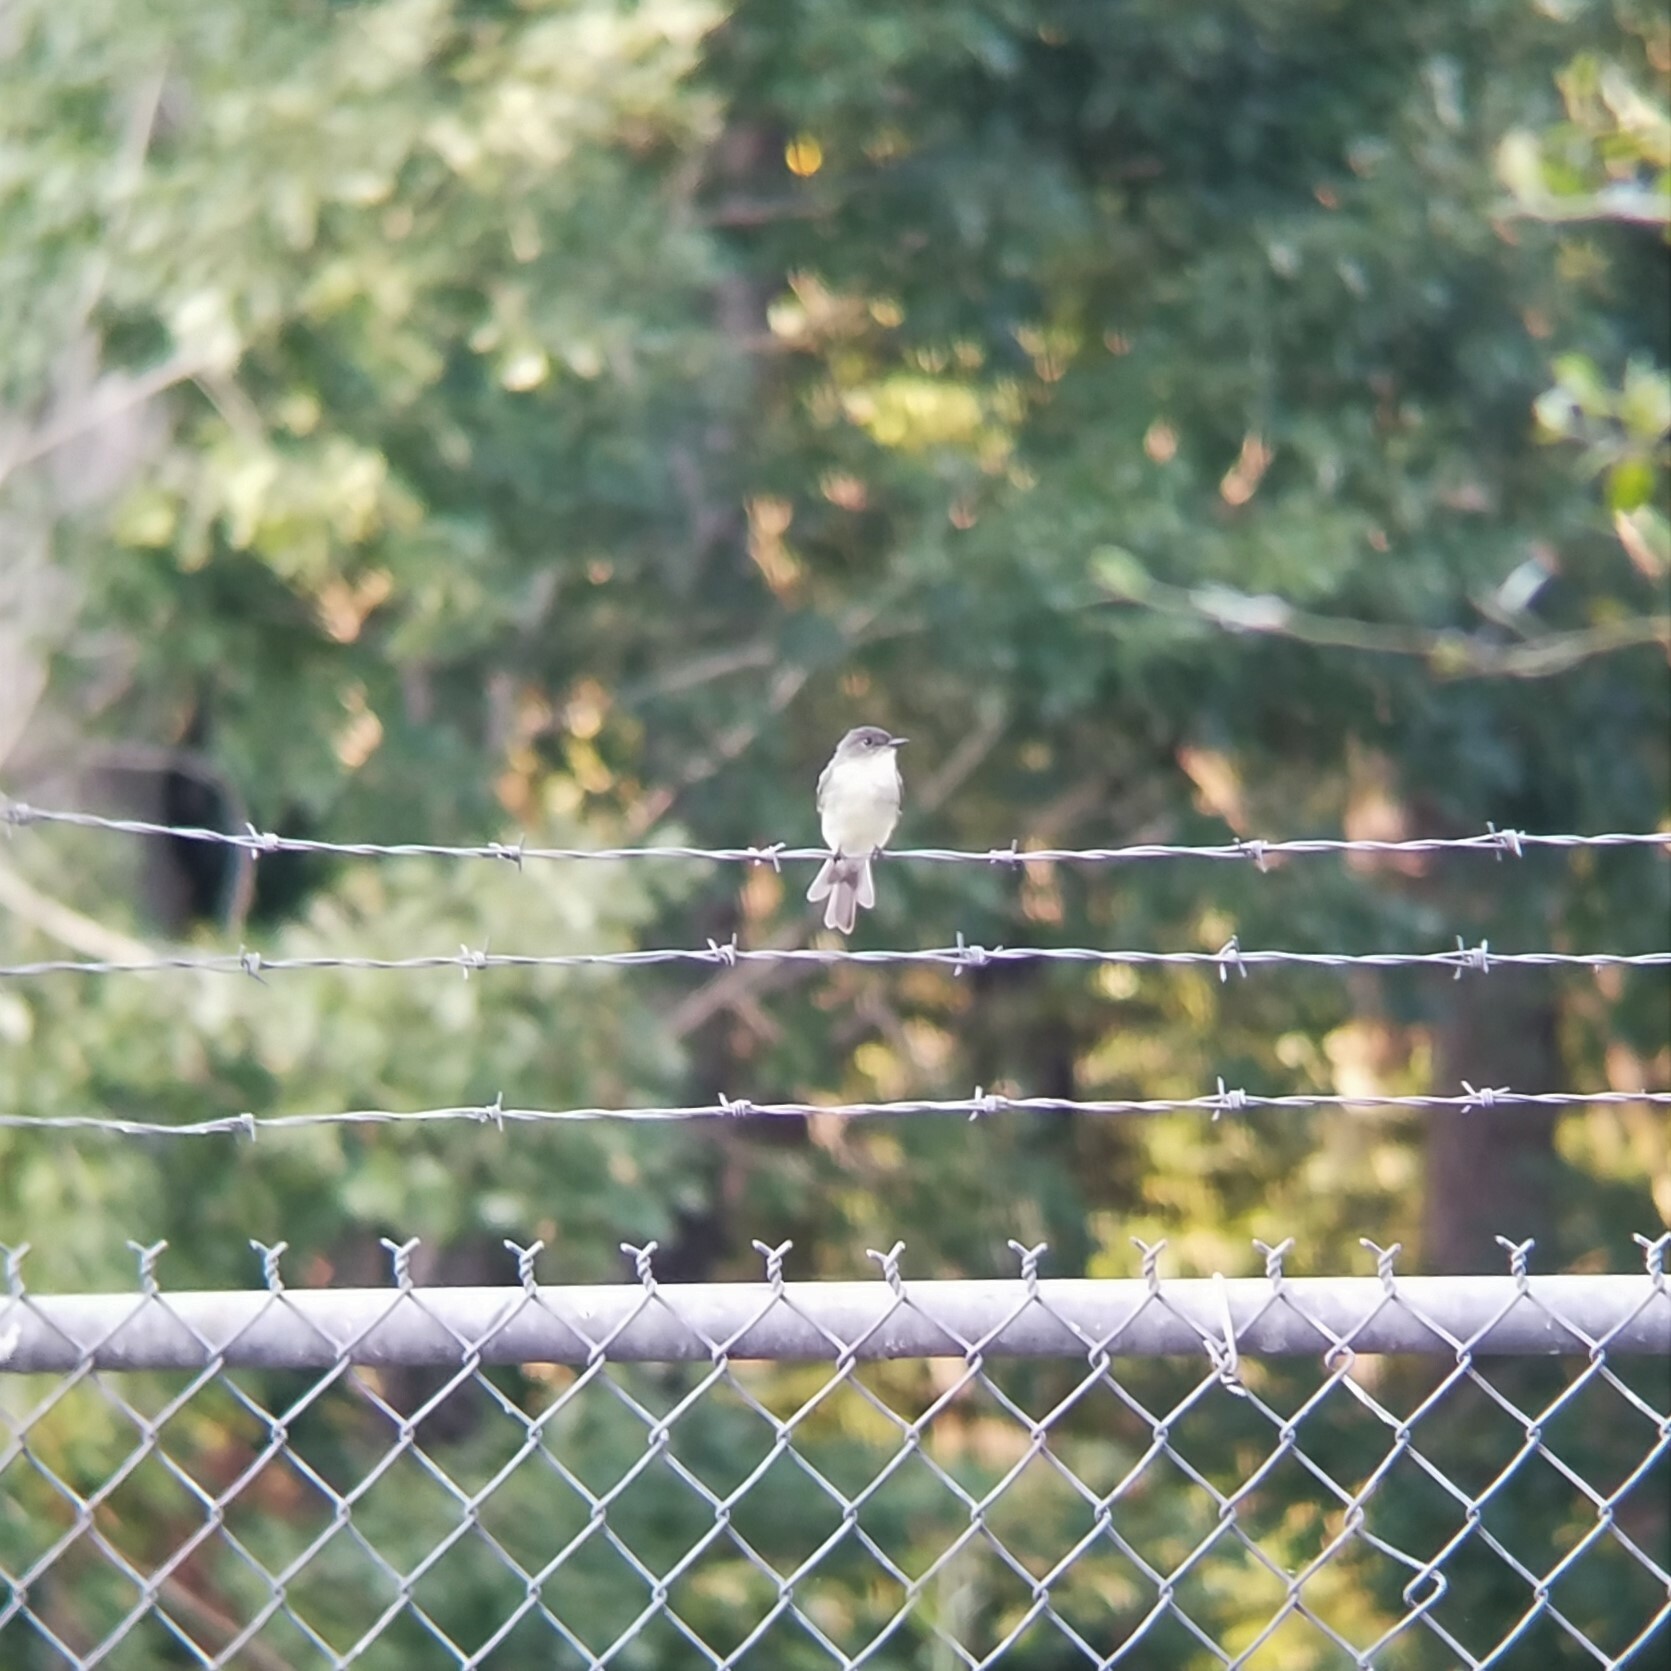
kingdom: Animalia
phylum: Chordata
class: Aves
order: Passeriformes
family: Tyrannidae
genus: Sayornis
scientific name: Sayornis phoebe
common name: Eastern phoebe
